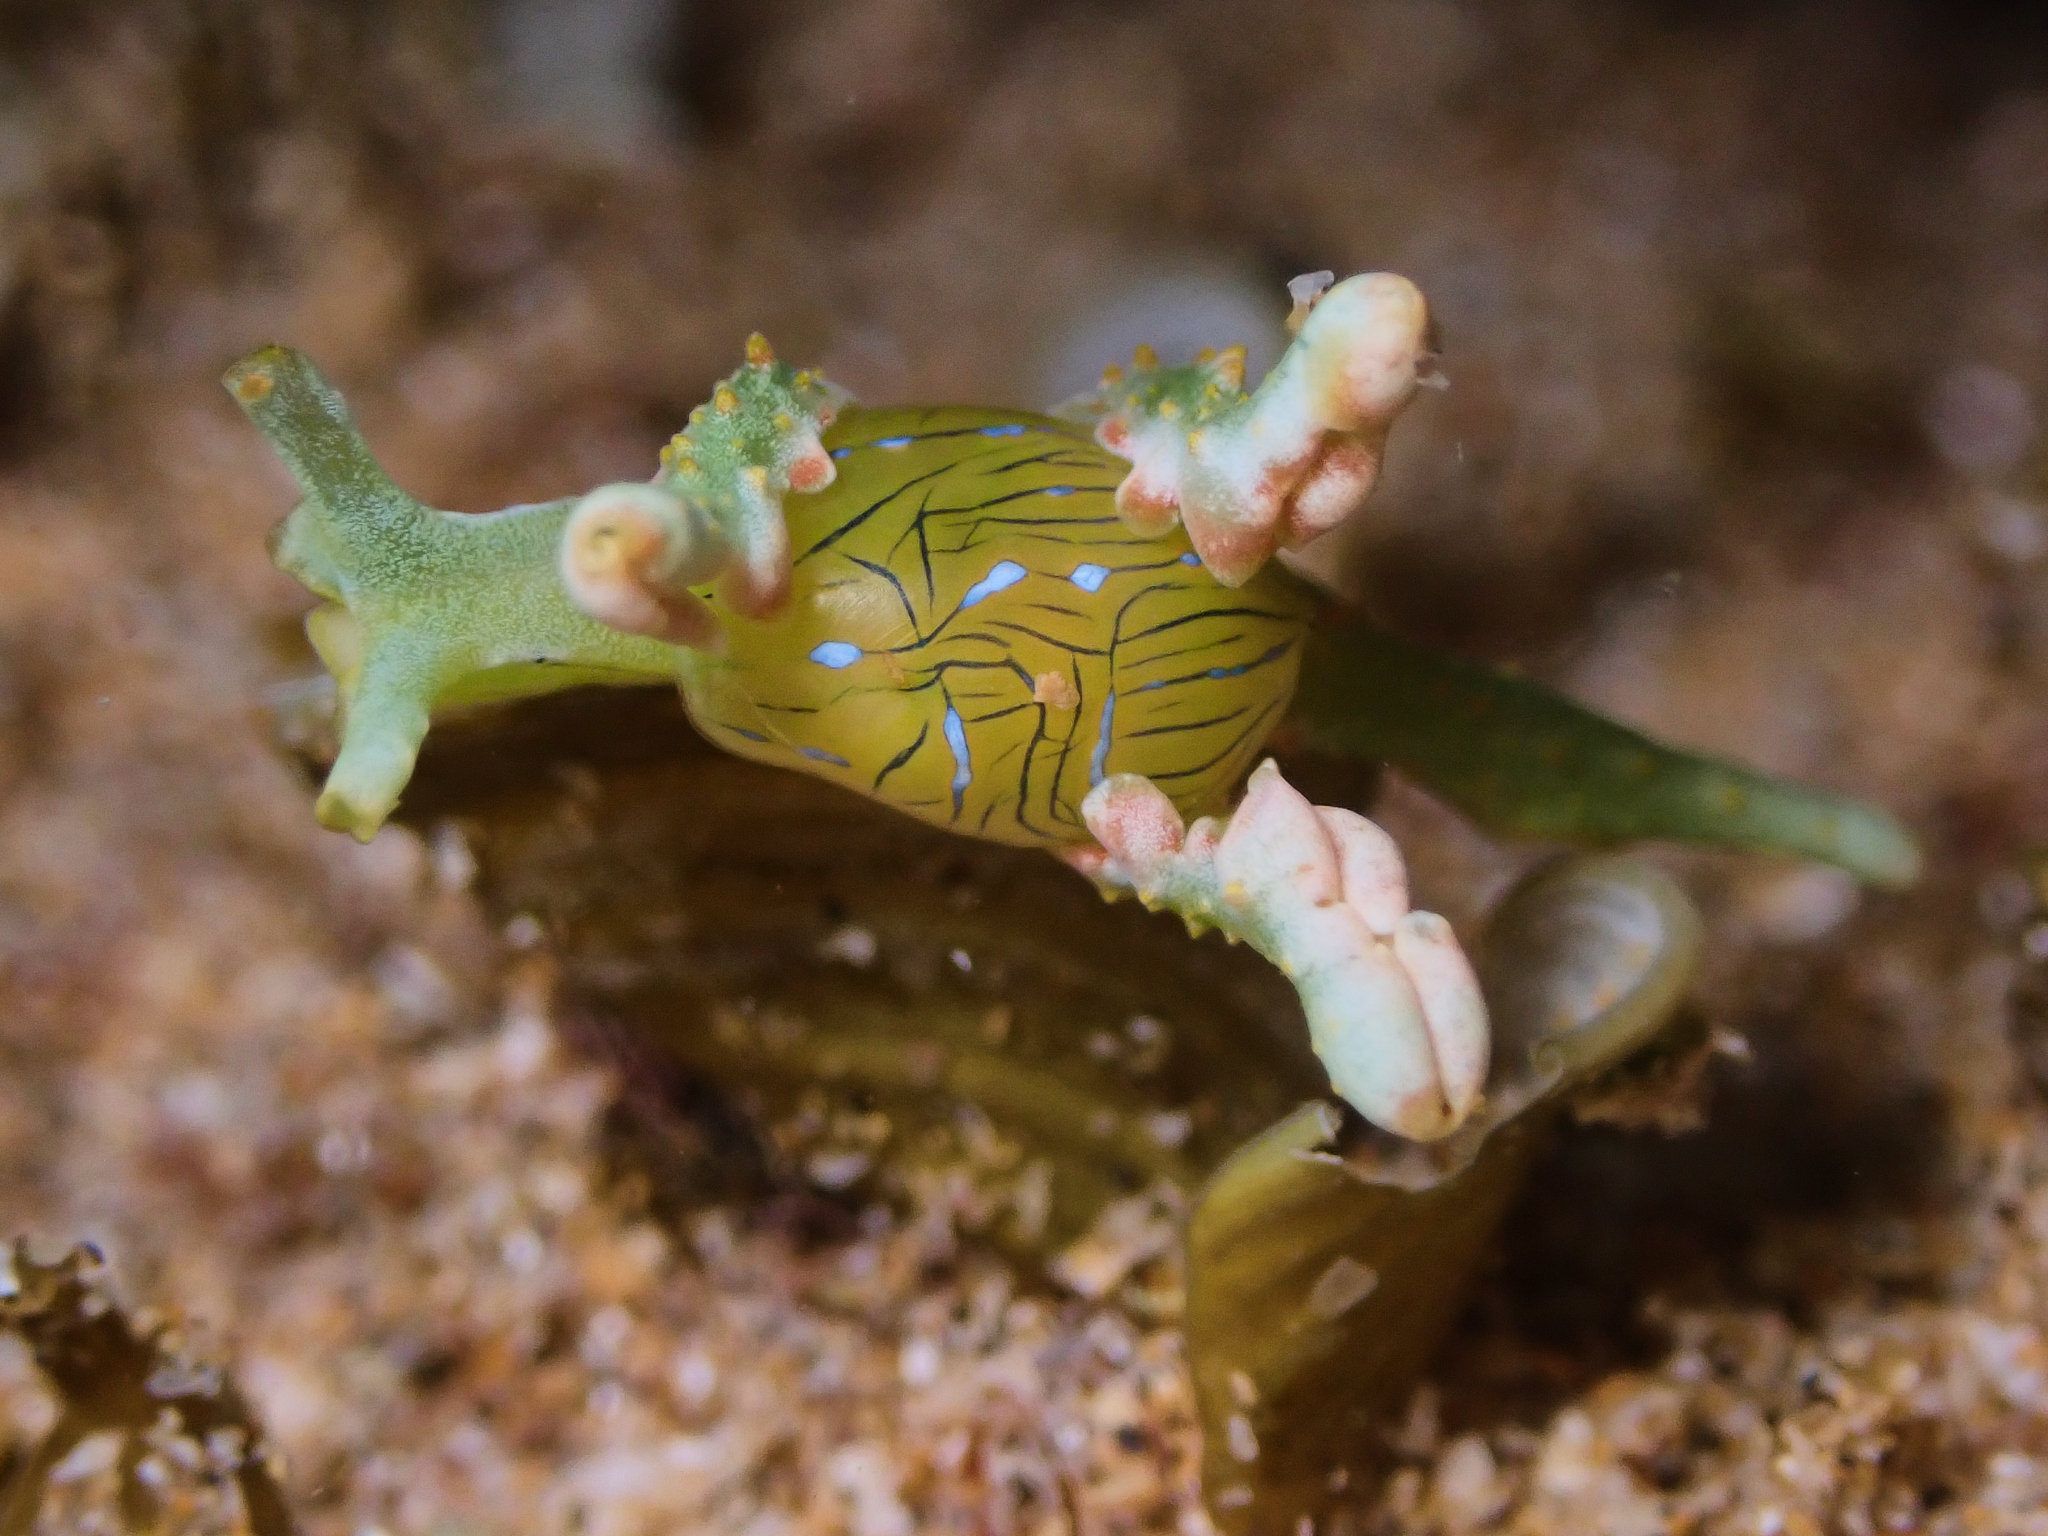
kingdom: Animalia
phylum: Mollusca
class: Gastropoda
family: Oxynoidae
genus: Lobiger
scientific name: Lobiger viridis
